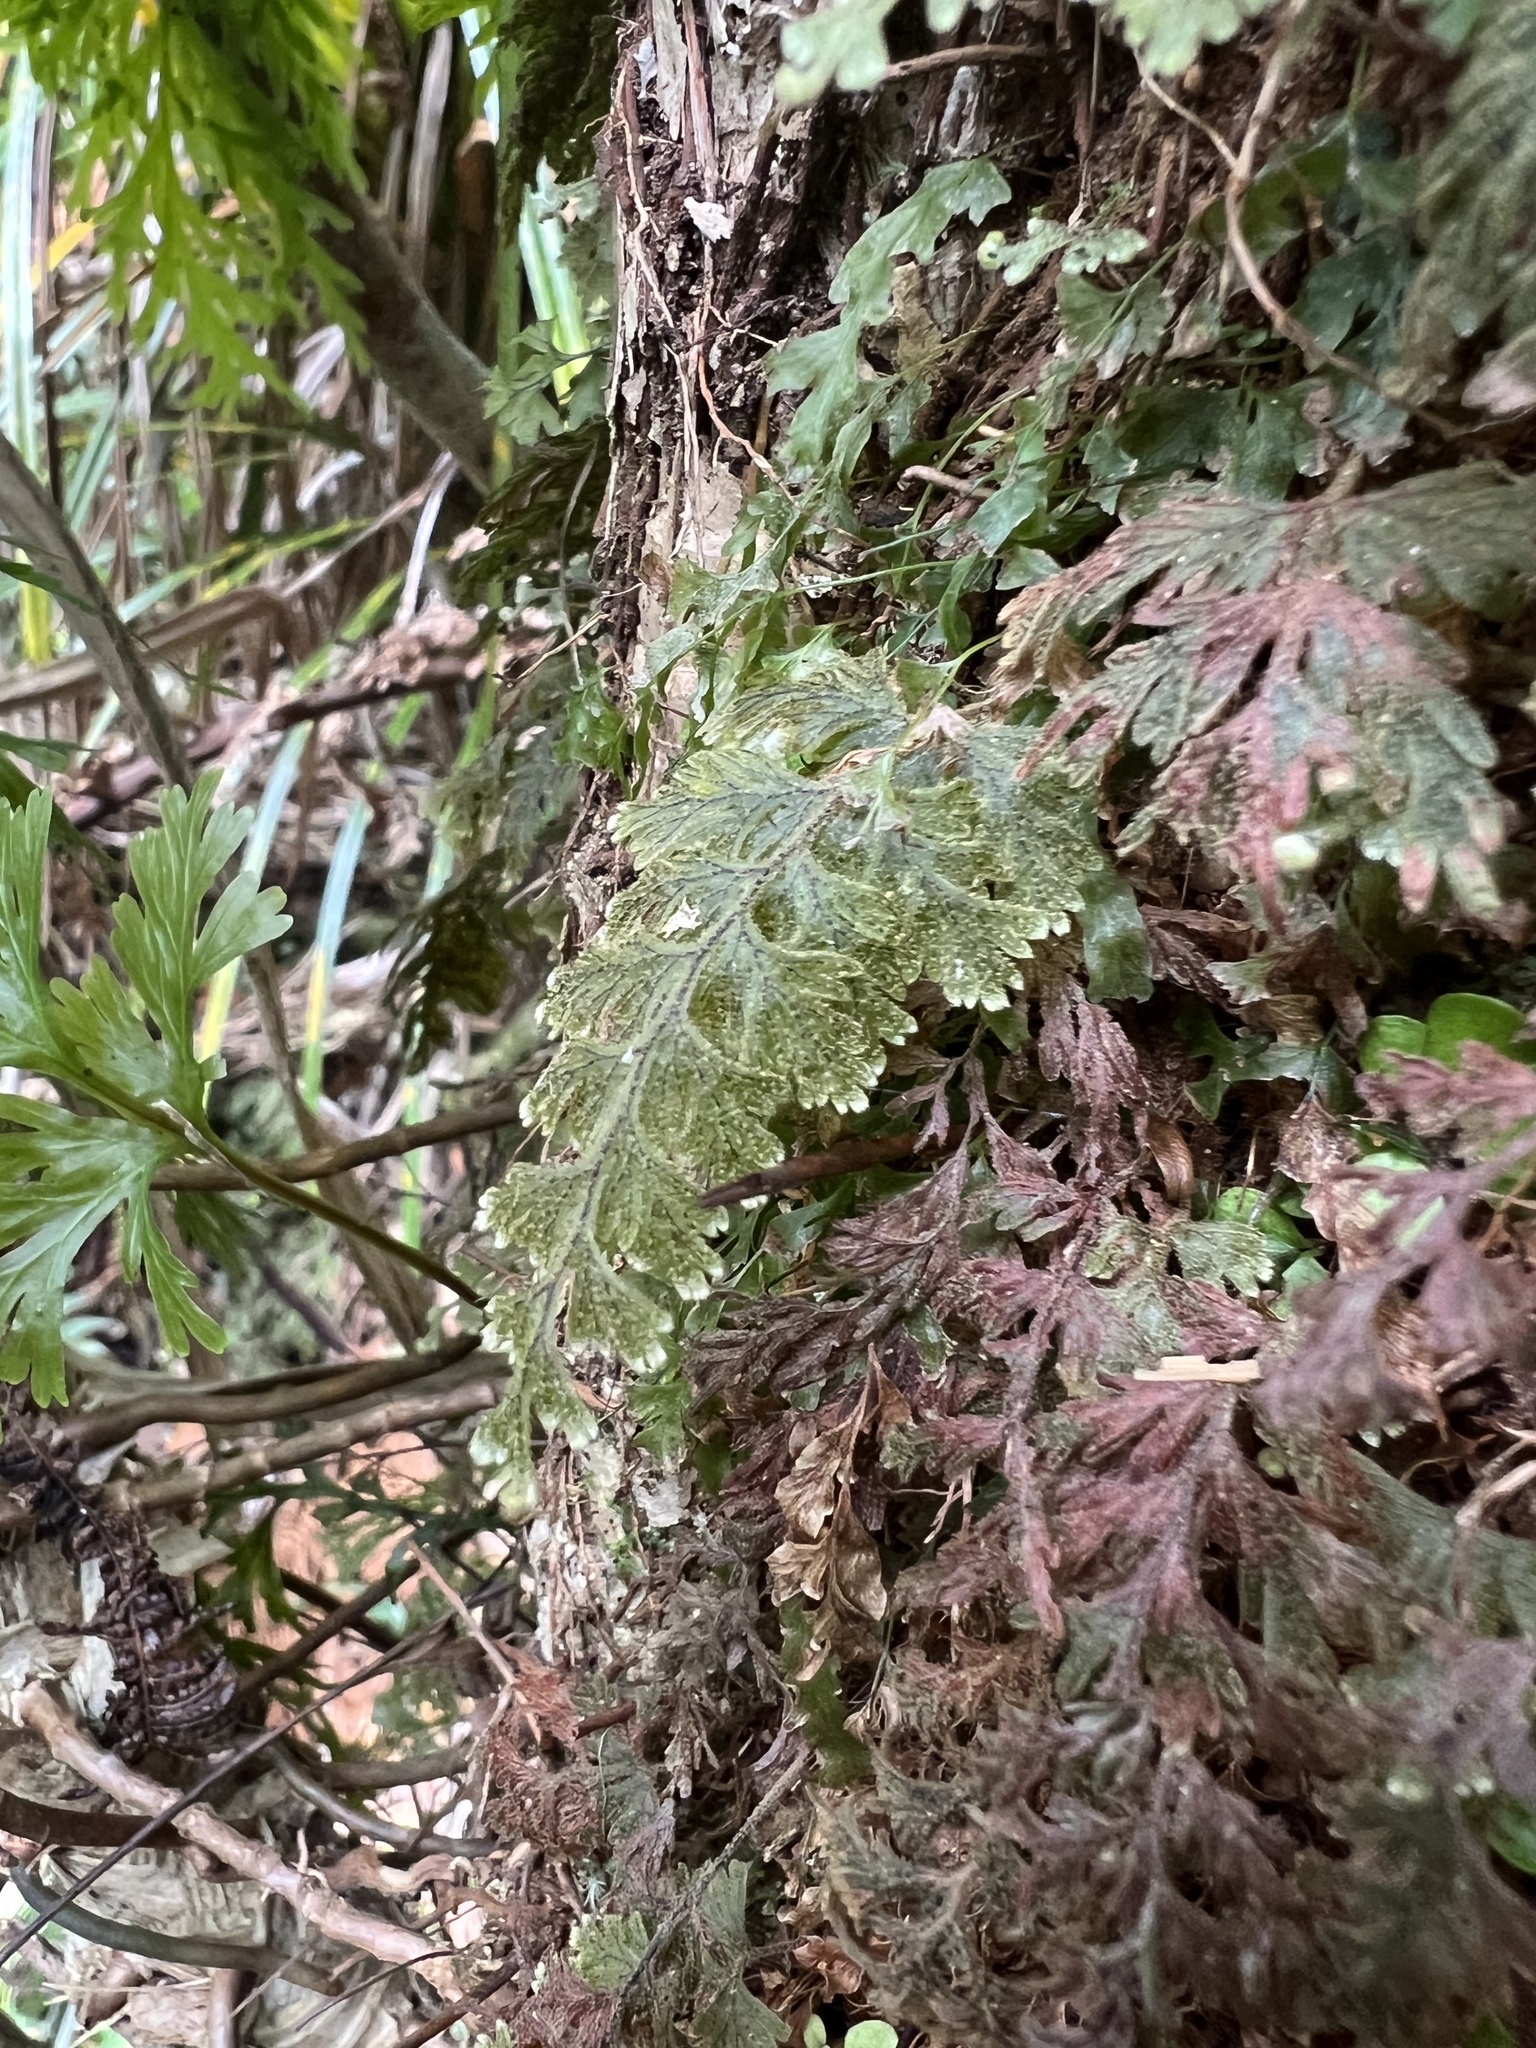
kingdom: Plantae
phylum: Tracheophyta
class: Polypodiopsida
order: Hymenophyllales
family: Hymenophyllaceae
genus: Hymenophyllum
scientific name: Hymenophyllum frankliniae
